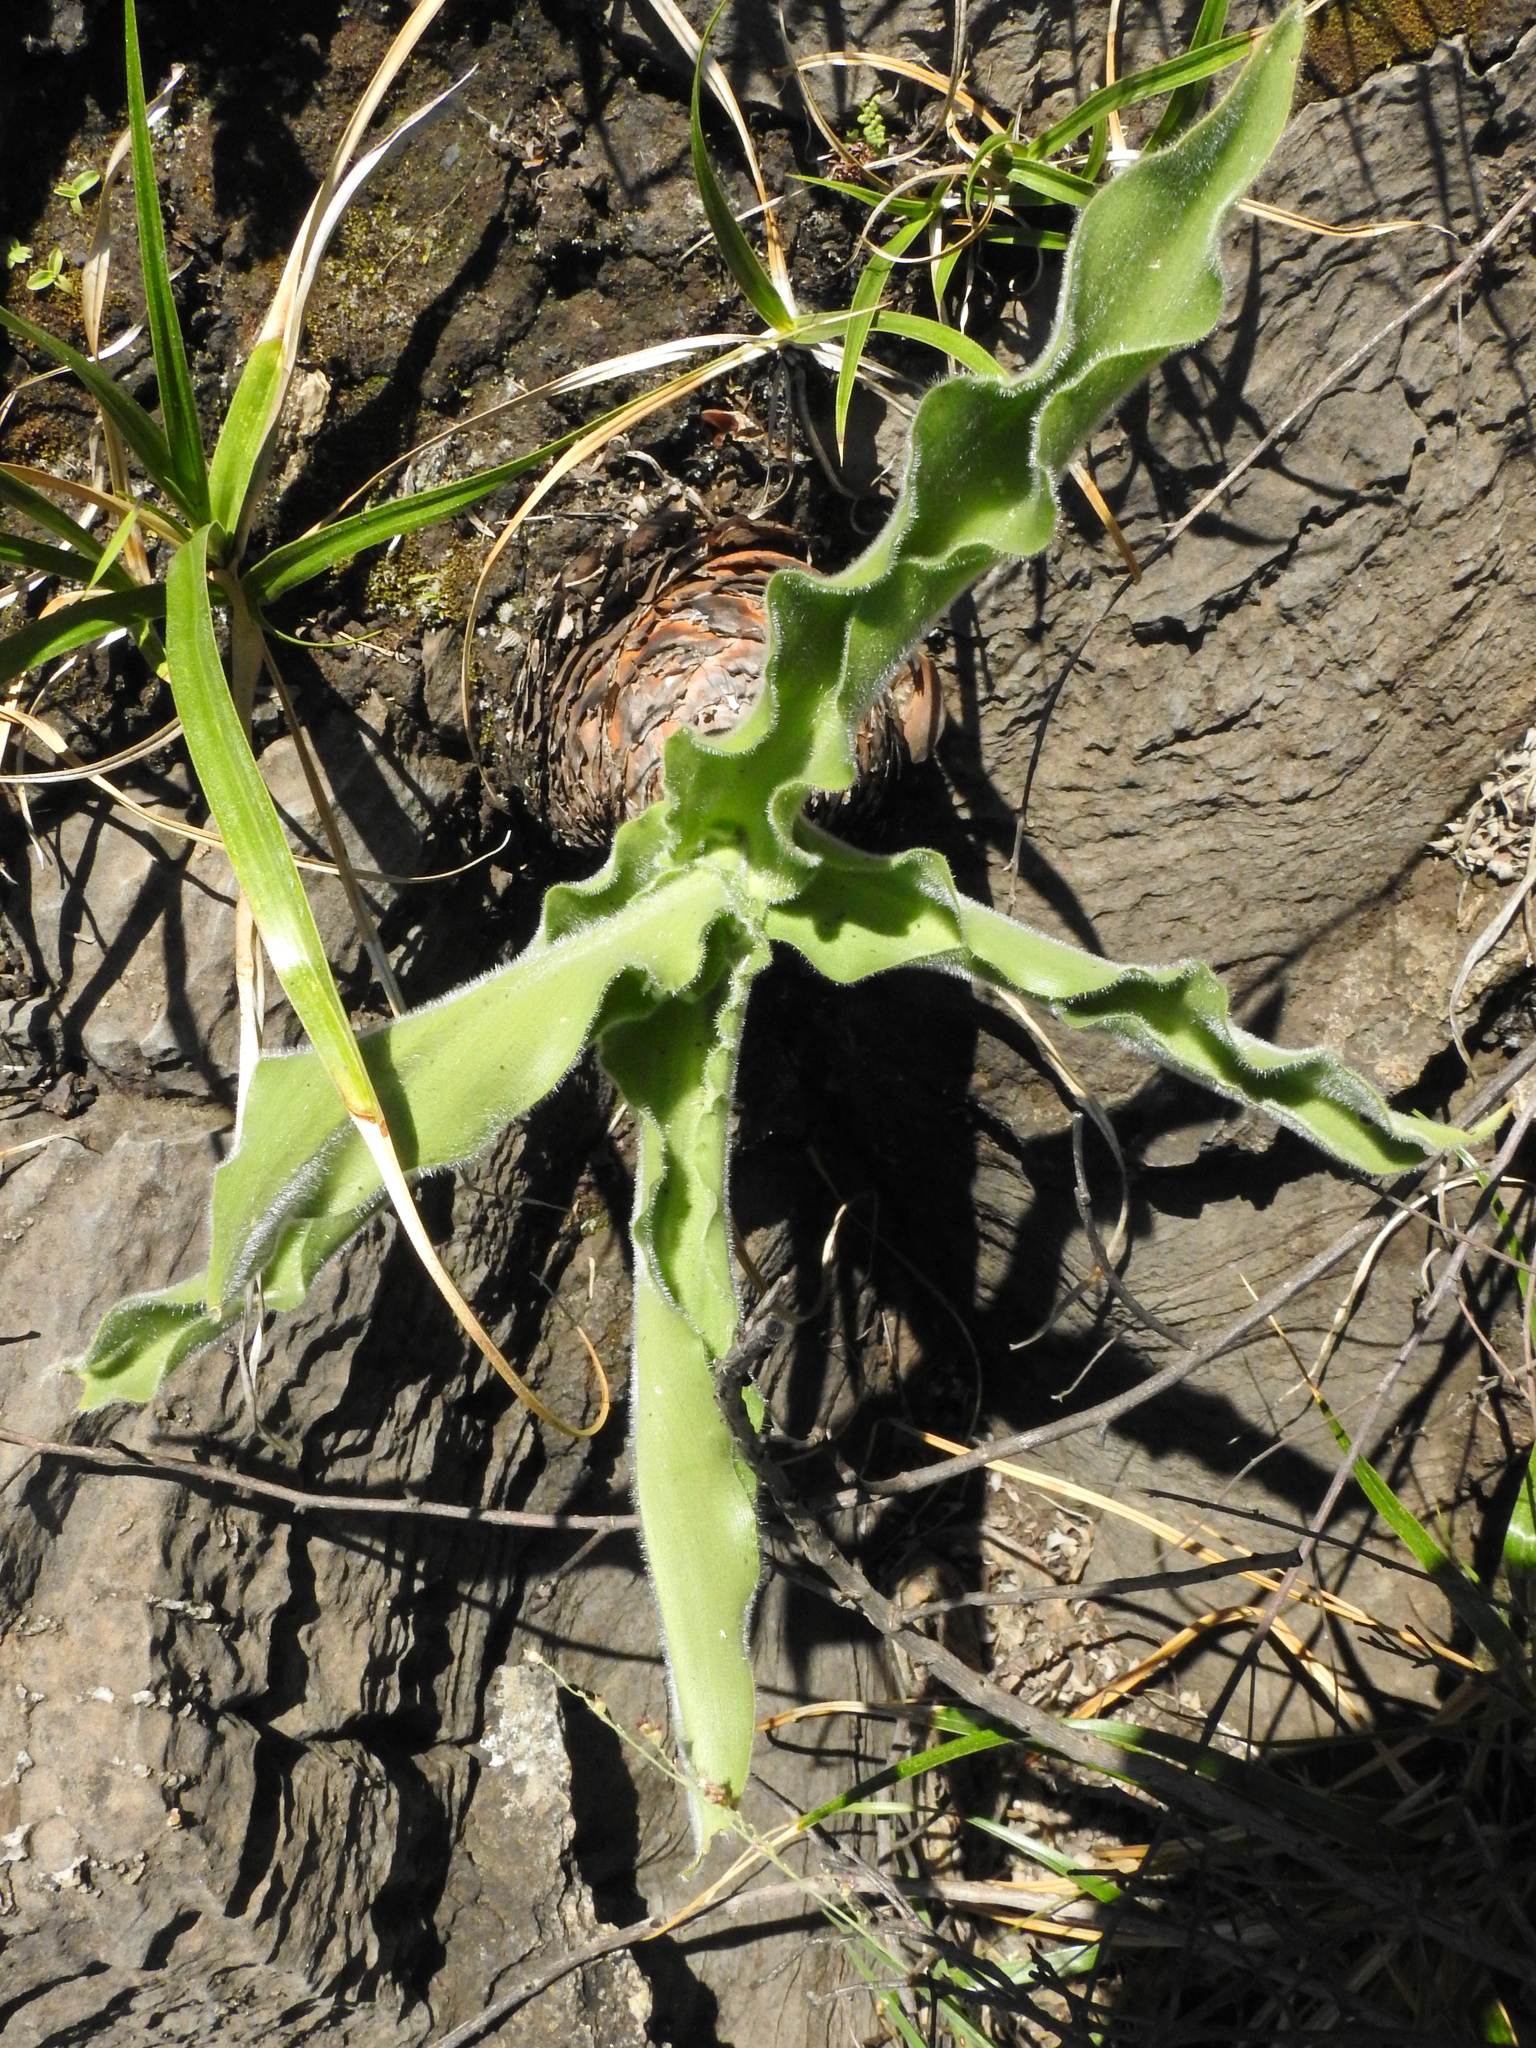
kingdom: Plantae
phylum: Tracheophyta
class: Liliopsida
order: Asparagales
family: Asparagaceae
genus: Merwilla
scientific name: Merwilla plumbea
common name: Blue-squill
